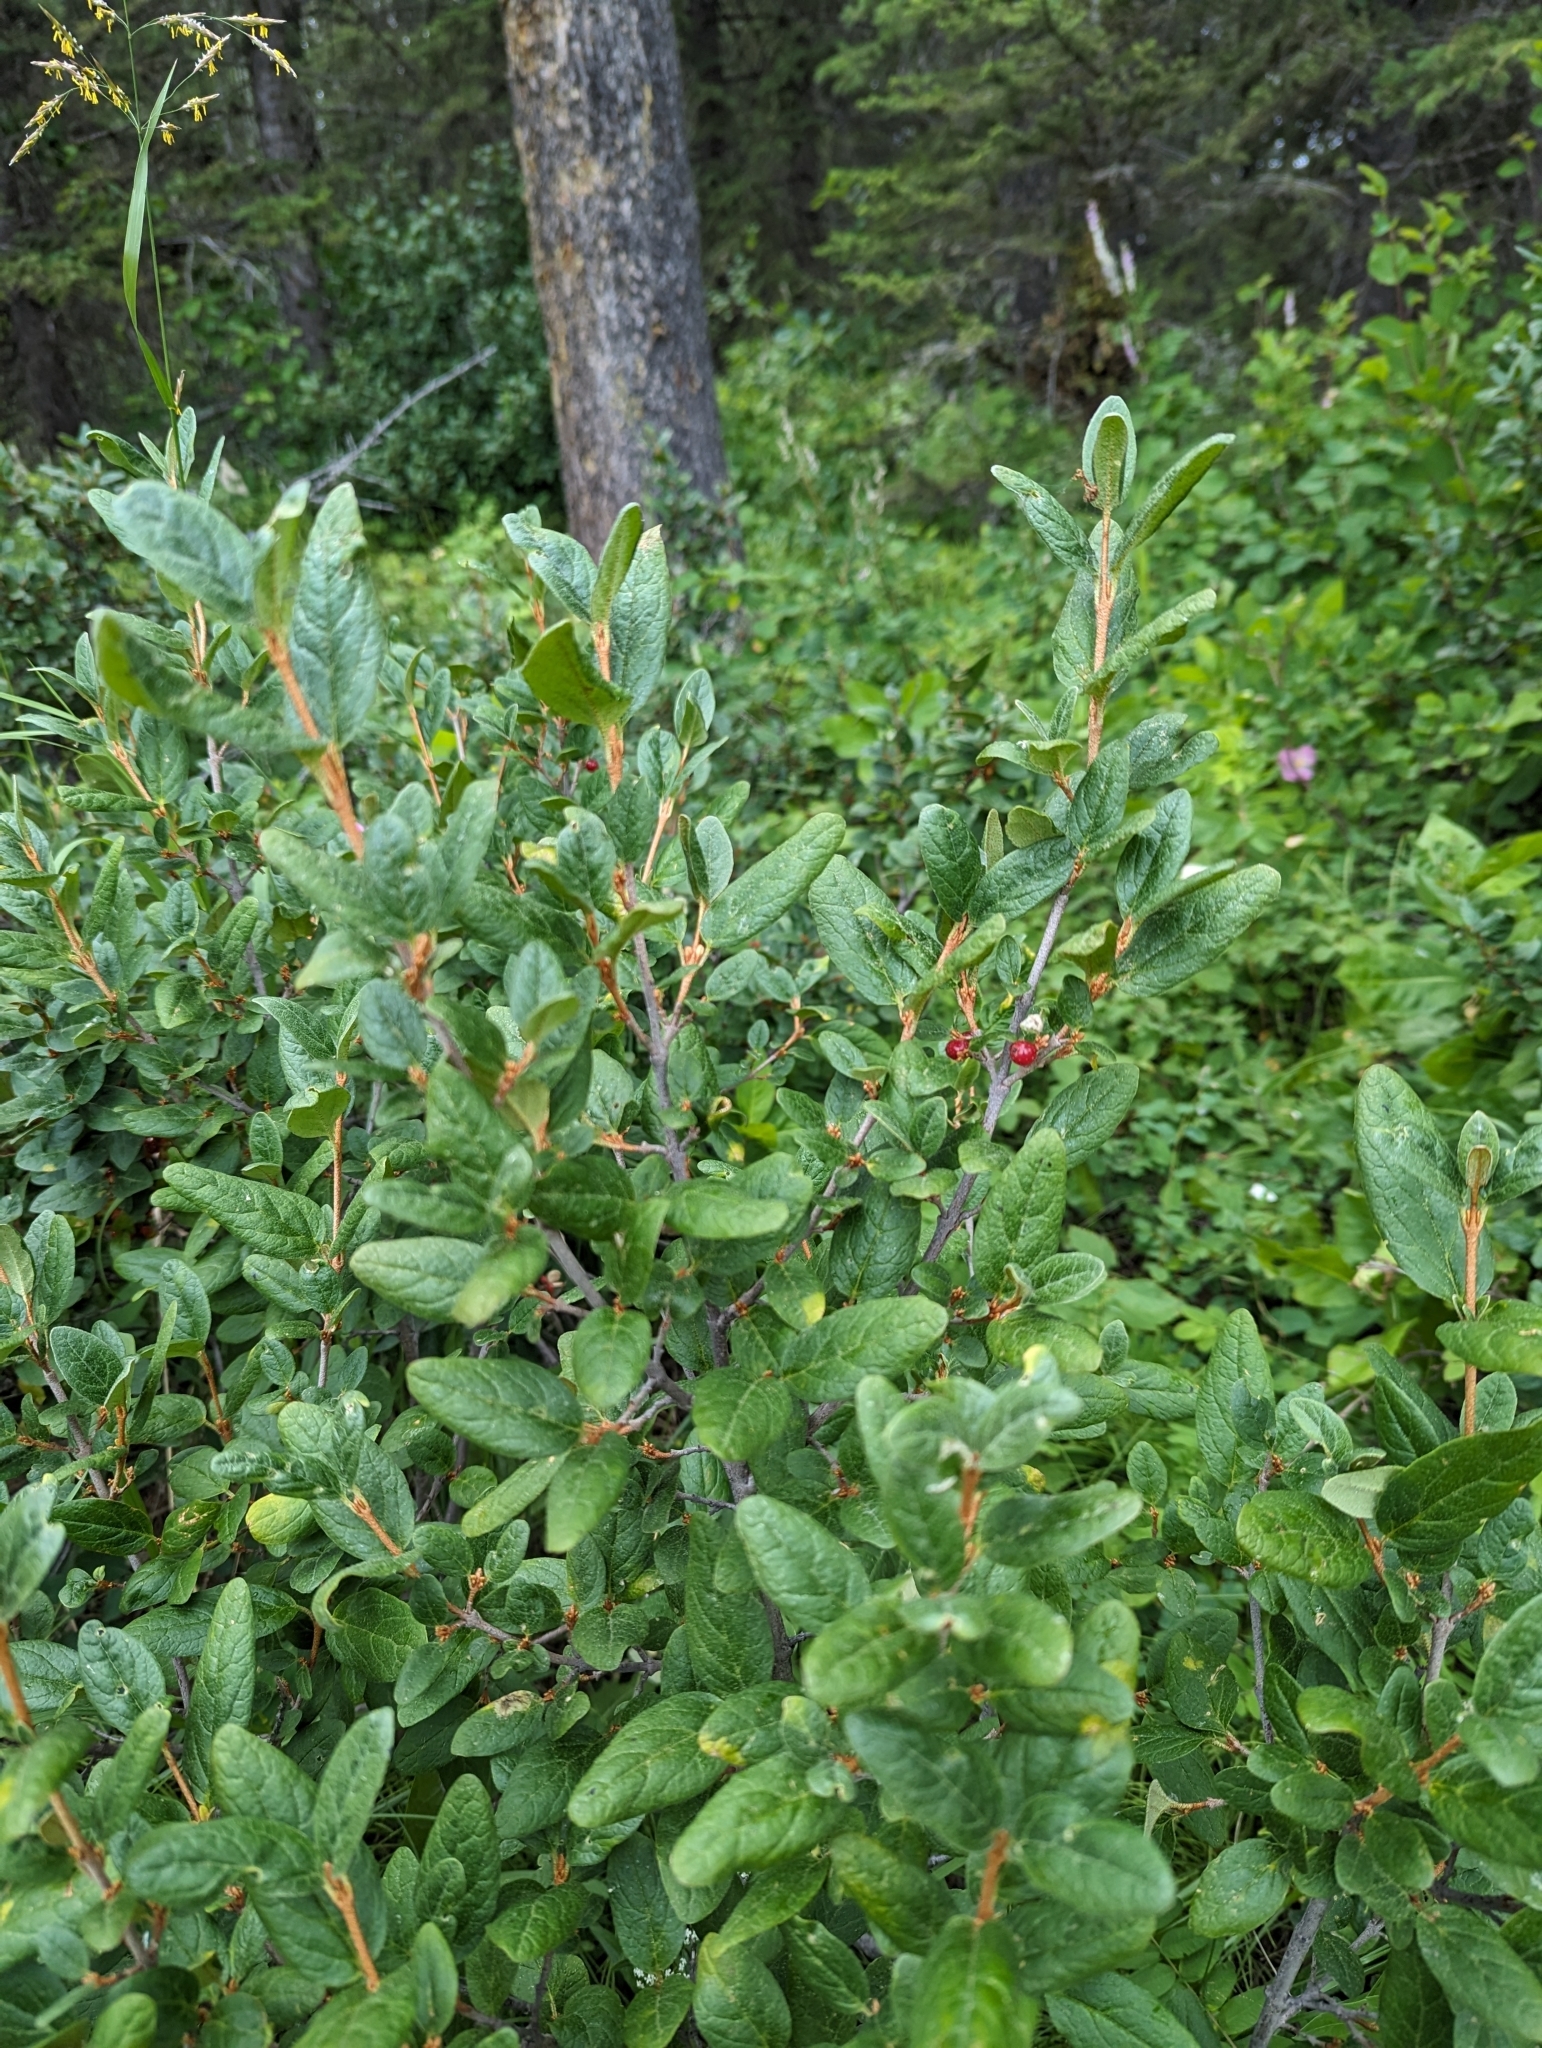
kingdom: Plantae
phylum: Tracheophyta
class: Magnoliopsida
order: Rosales
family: Elaeagnaceae
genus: Shepherdia
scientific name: Shepherdia canadensis
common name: Soapberry
